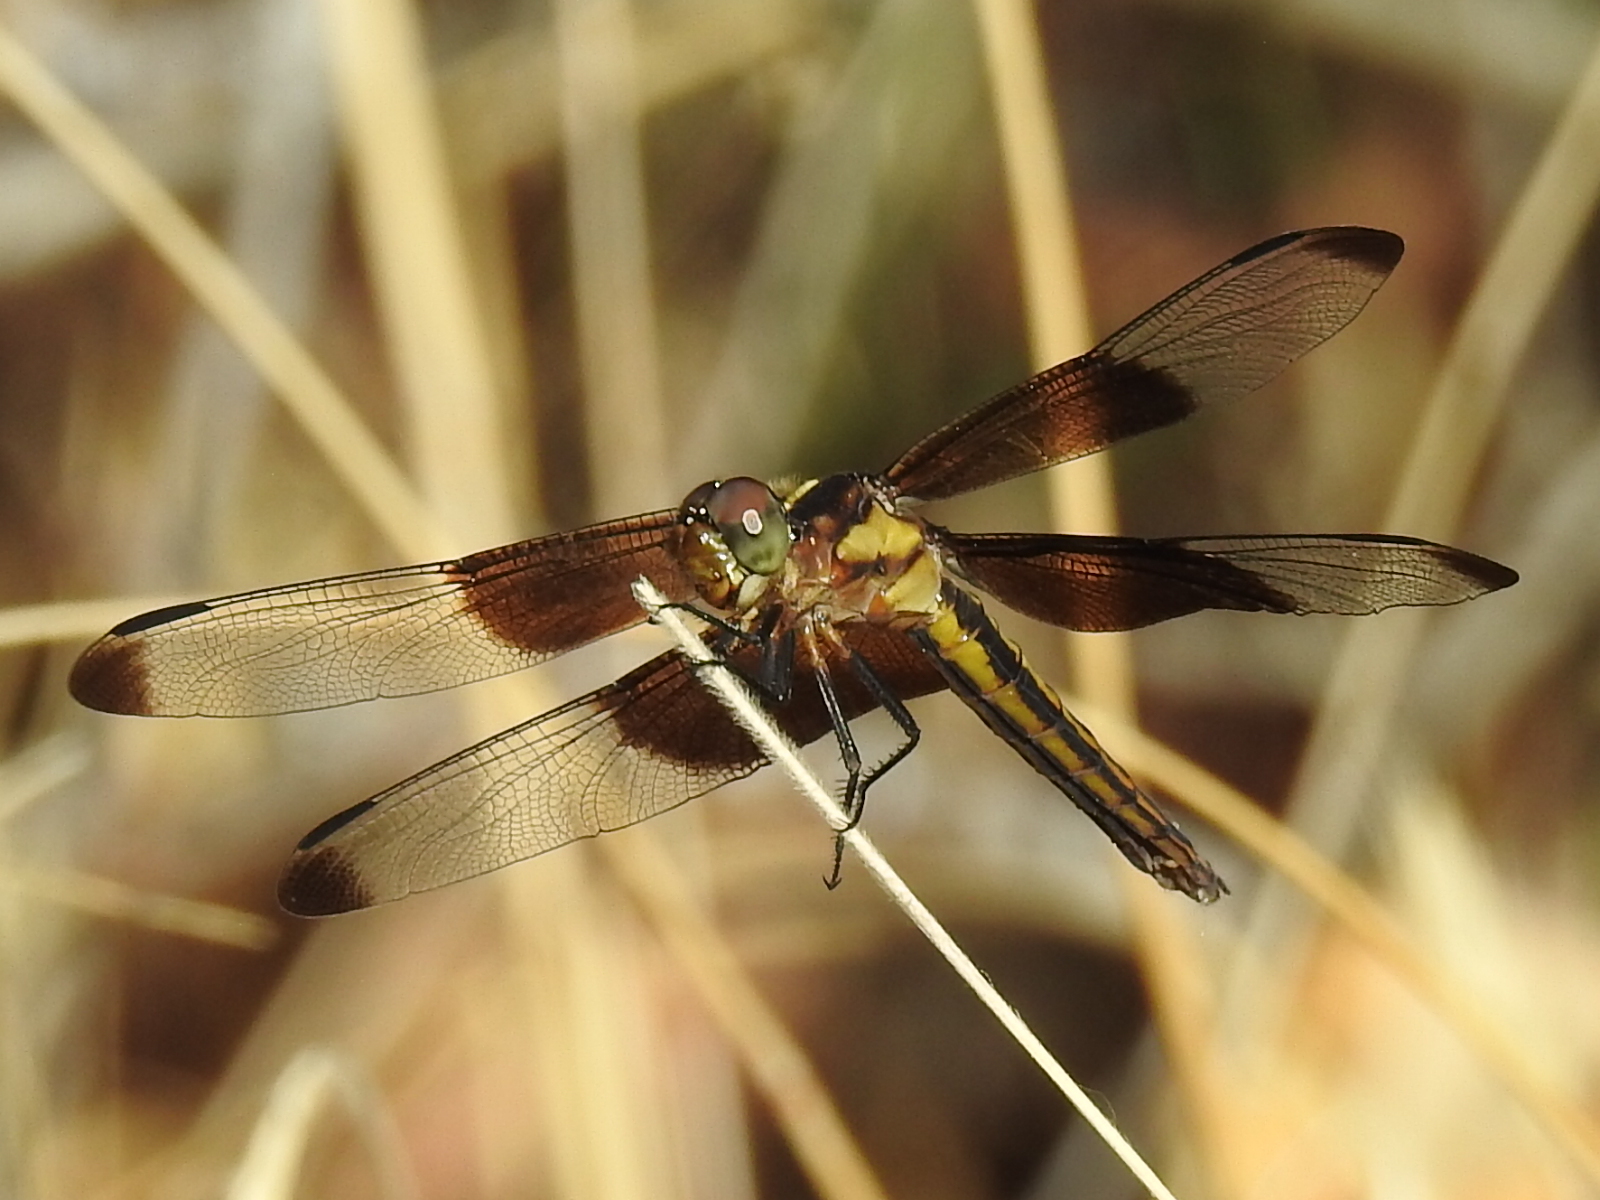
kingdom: Animalia
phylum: Arthropoda
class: Insecta
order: Odonata
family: Libellulidae
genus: Libellula
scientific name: Libellula luctuosa
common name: Widow skimmer
